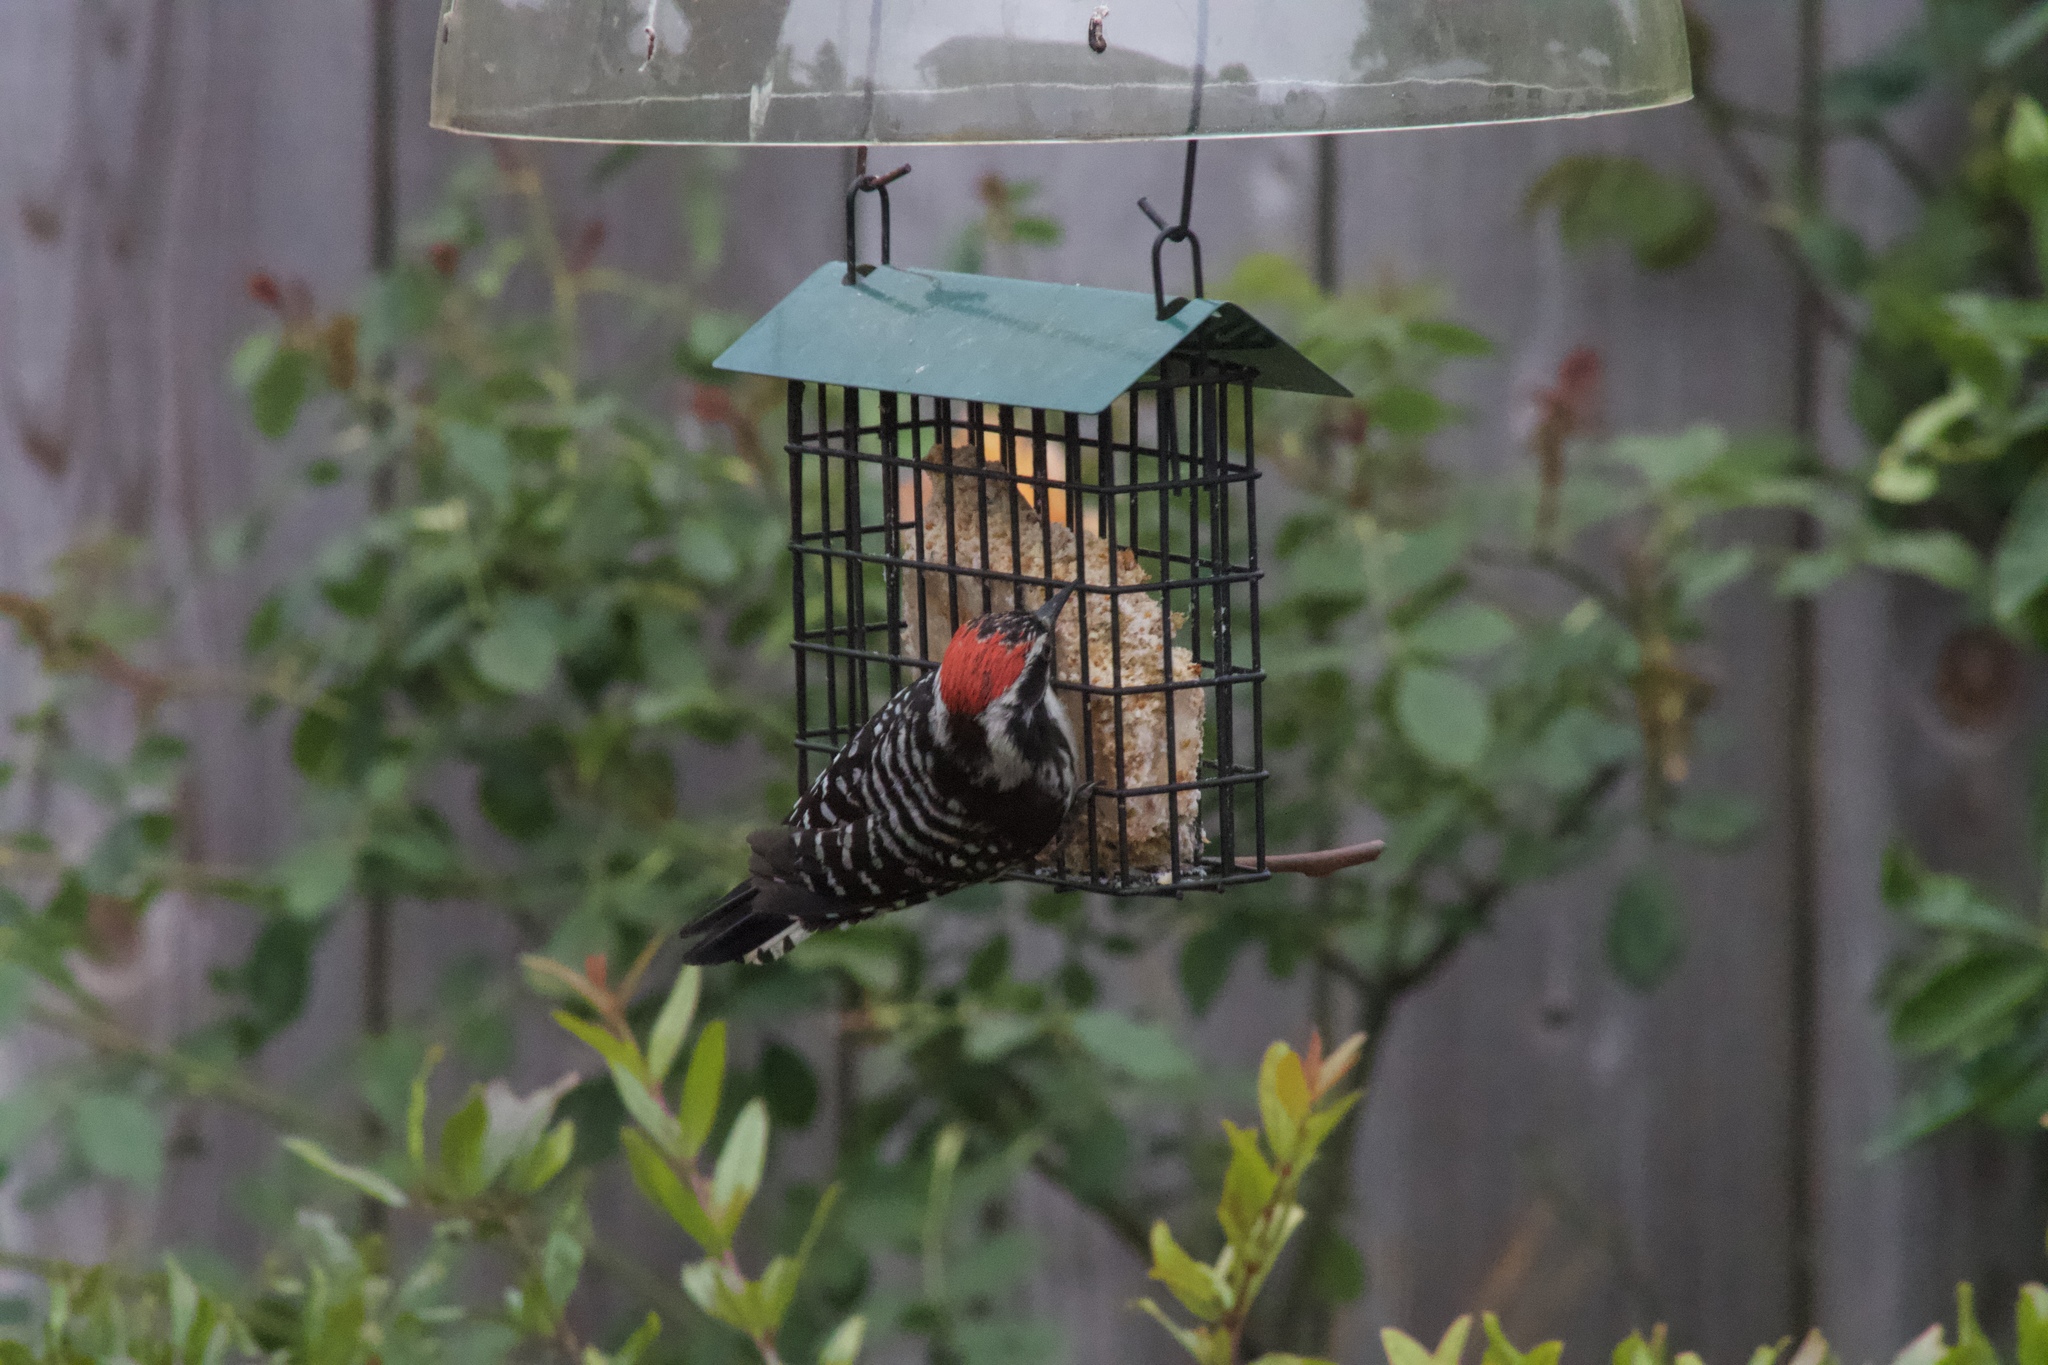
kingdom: Animalia
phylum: Chordata
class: Aves
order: Piciformes
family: Picidae
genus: Dryobates
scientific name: Dryobates nuttallii
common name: Nuttall's woodpecker
